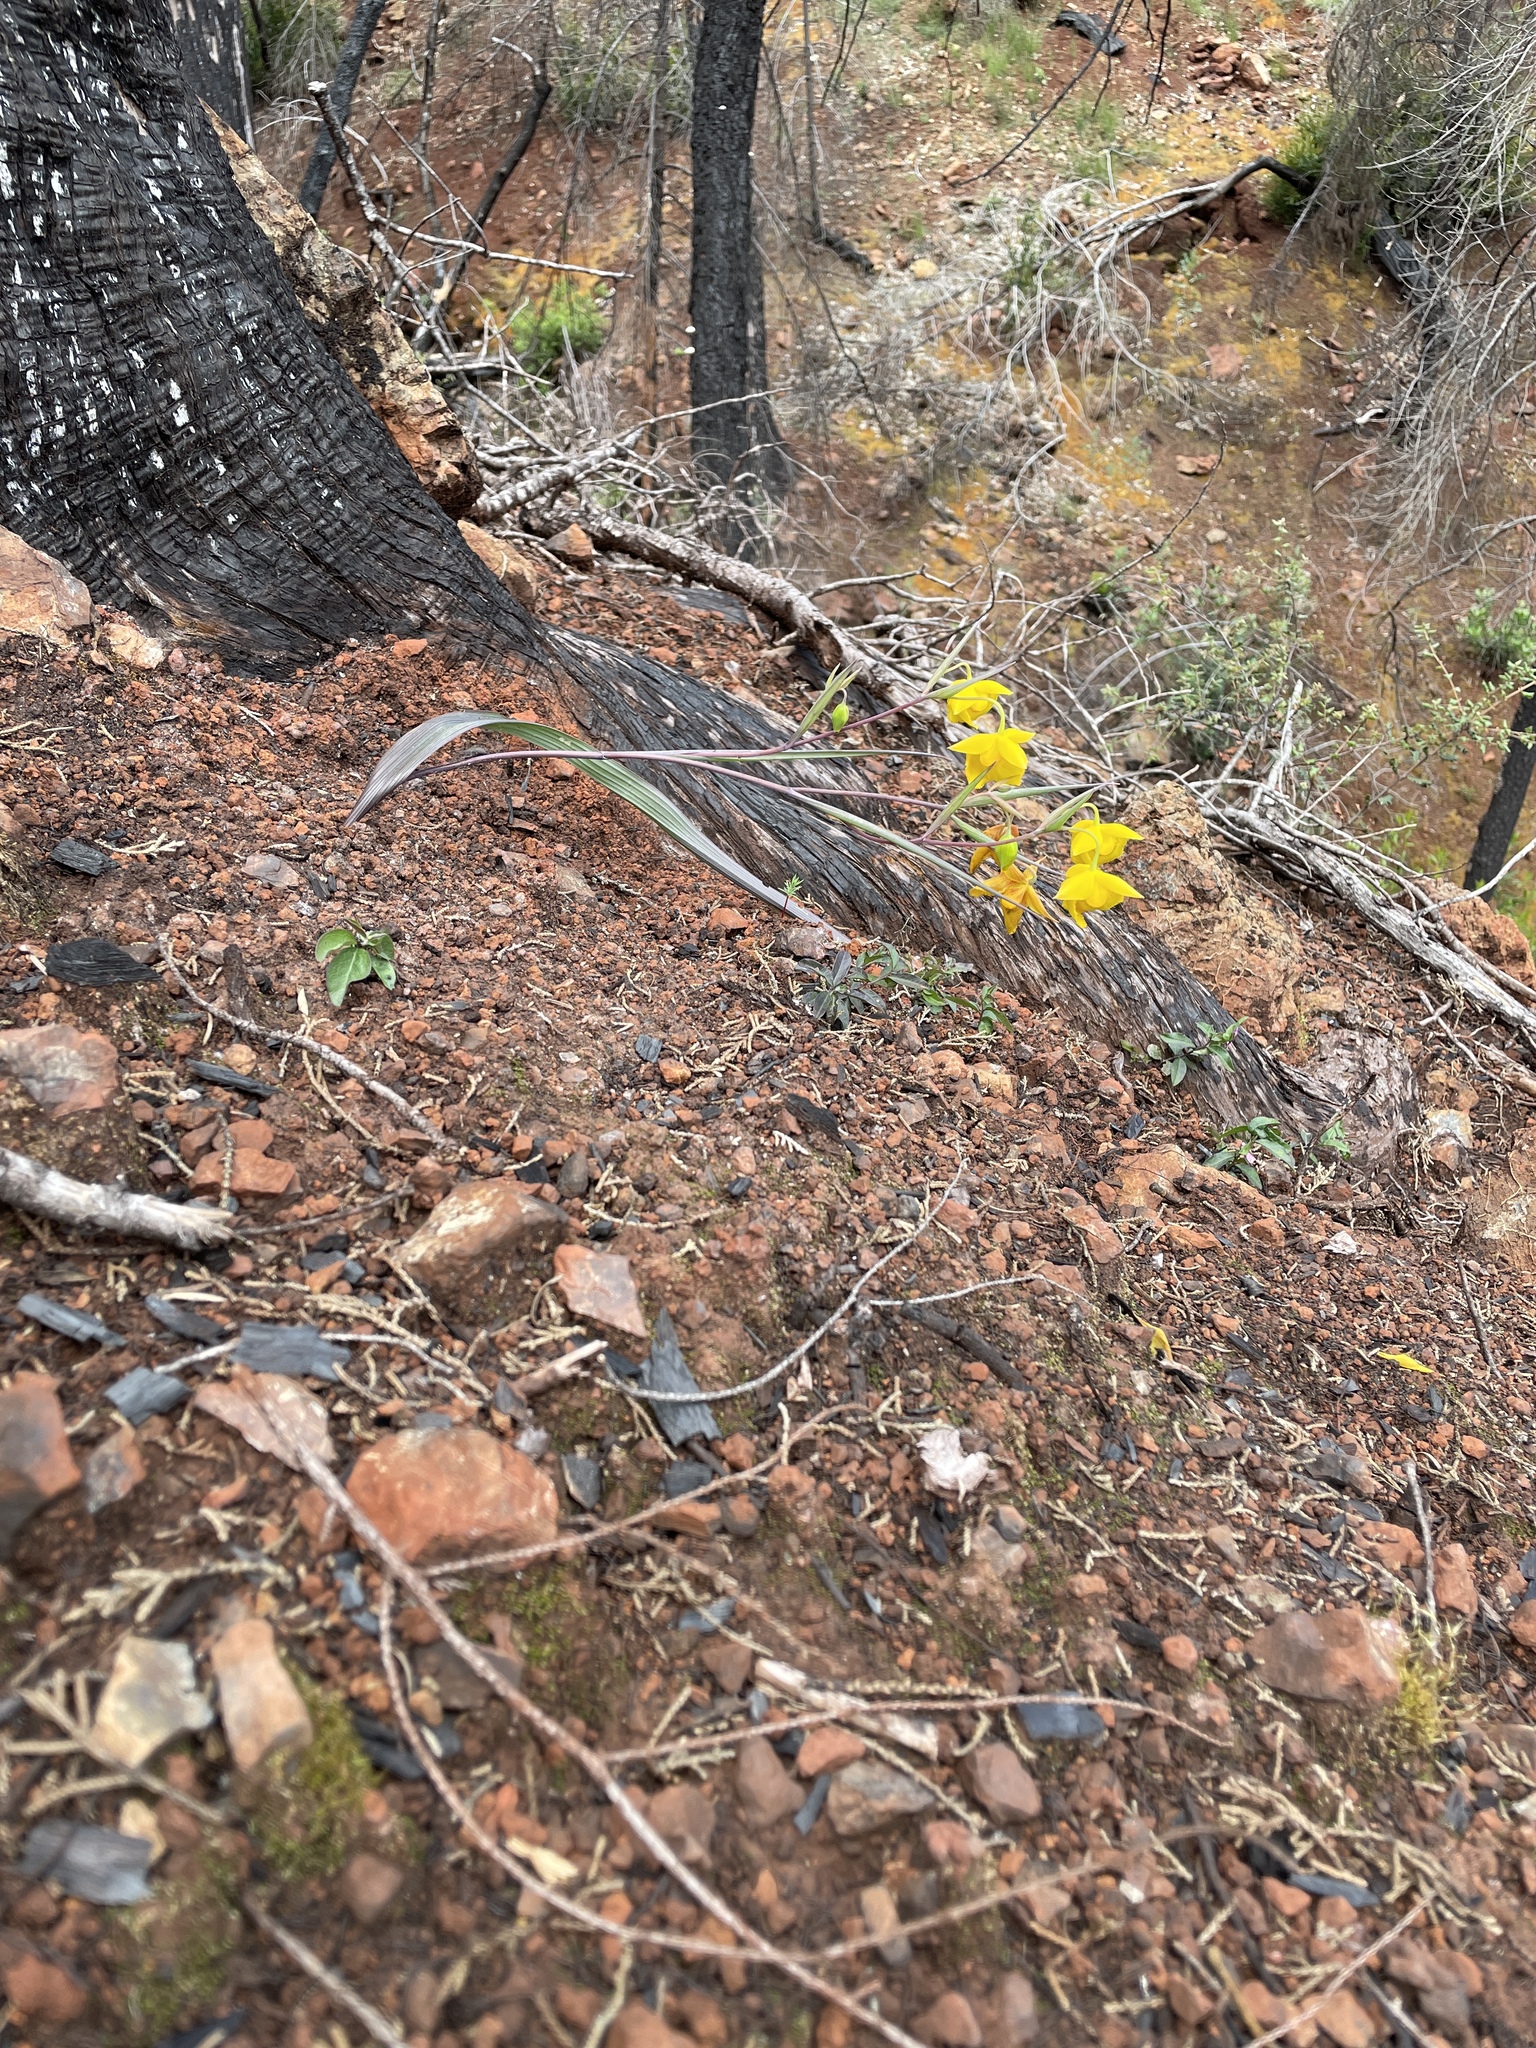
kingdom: Plantae
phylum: Tracheophyta
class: Liliopsida
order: Liliales
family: Liliaceae
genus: Calochortus
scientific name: Calochortus amabilis
